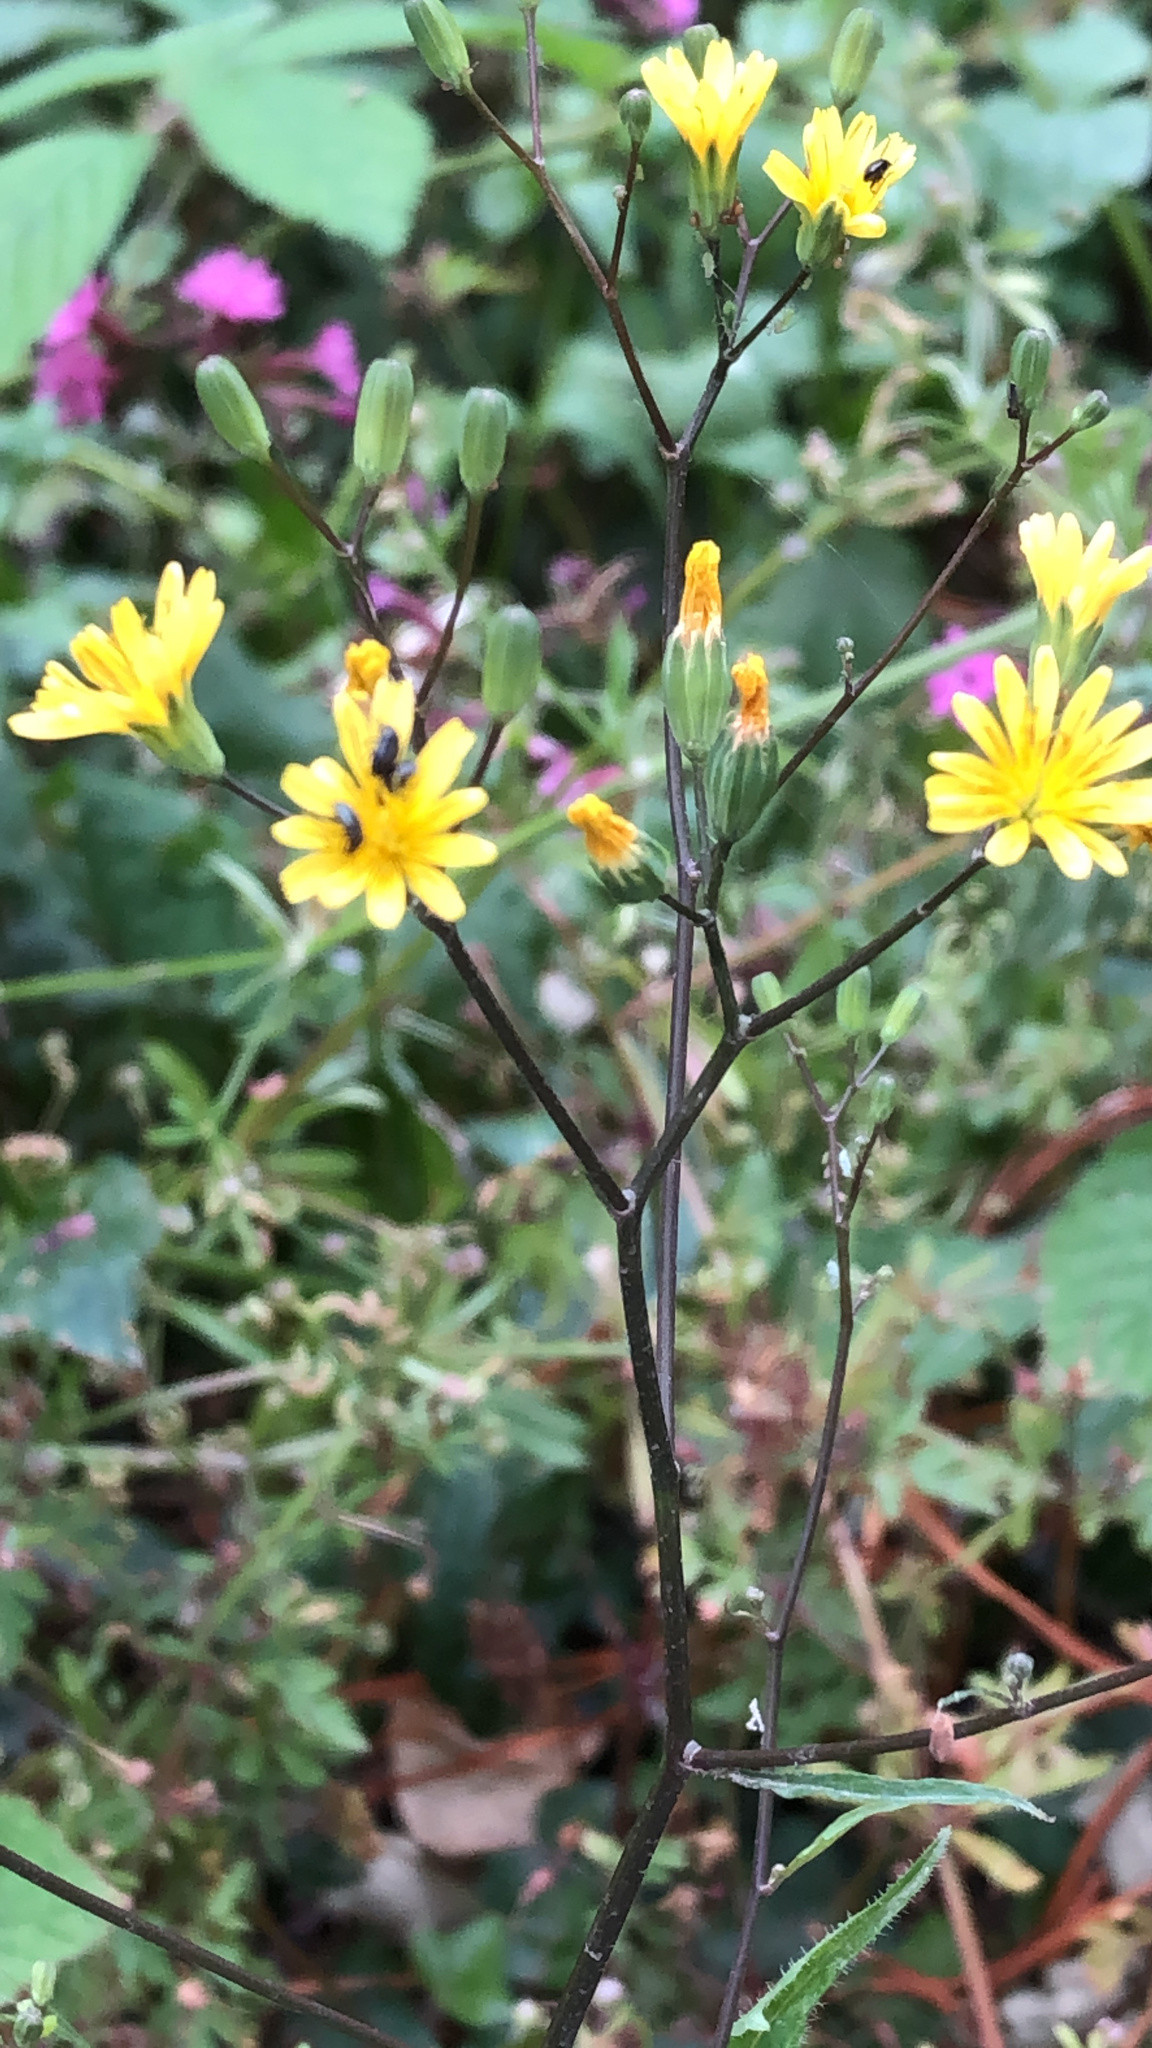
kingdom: Plantae
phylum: Tracheophyta
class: Magnoliopsida
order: Asterales
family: Asteraceae
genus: Lapsana
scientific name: Lapsana communis
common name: Nipplewort
